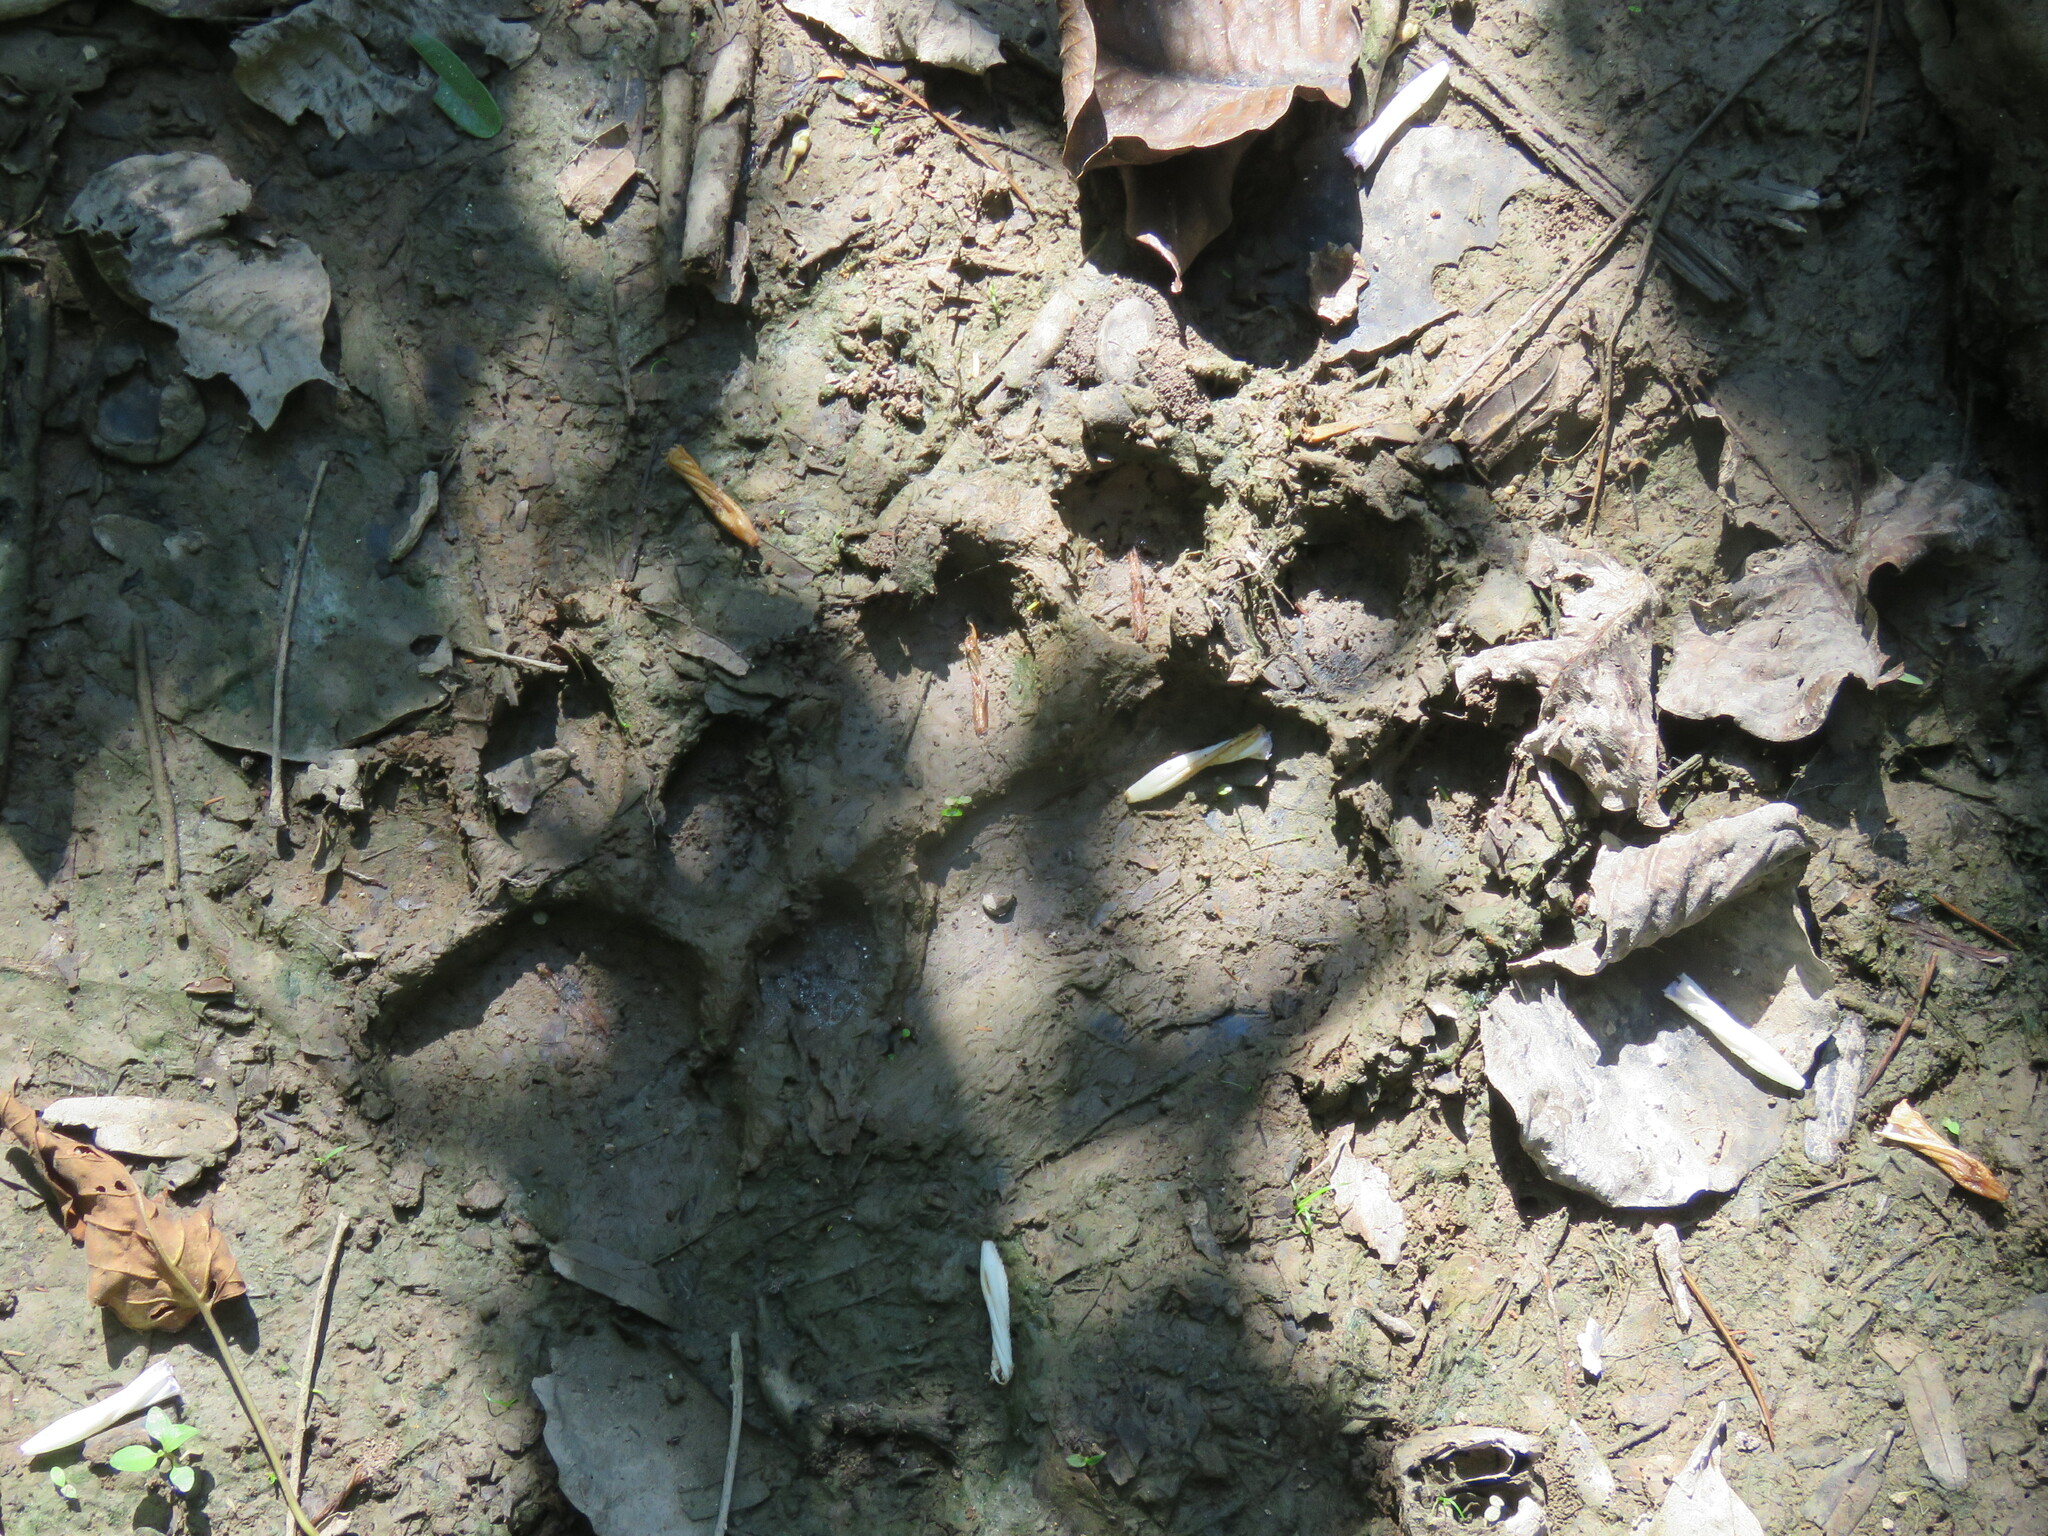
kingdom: Animalia
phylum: Chordata
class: Mammalia
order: Carnivora
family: Felidae
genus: Panthera
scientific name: Panthera onca
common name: Jaguar
